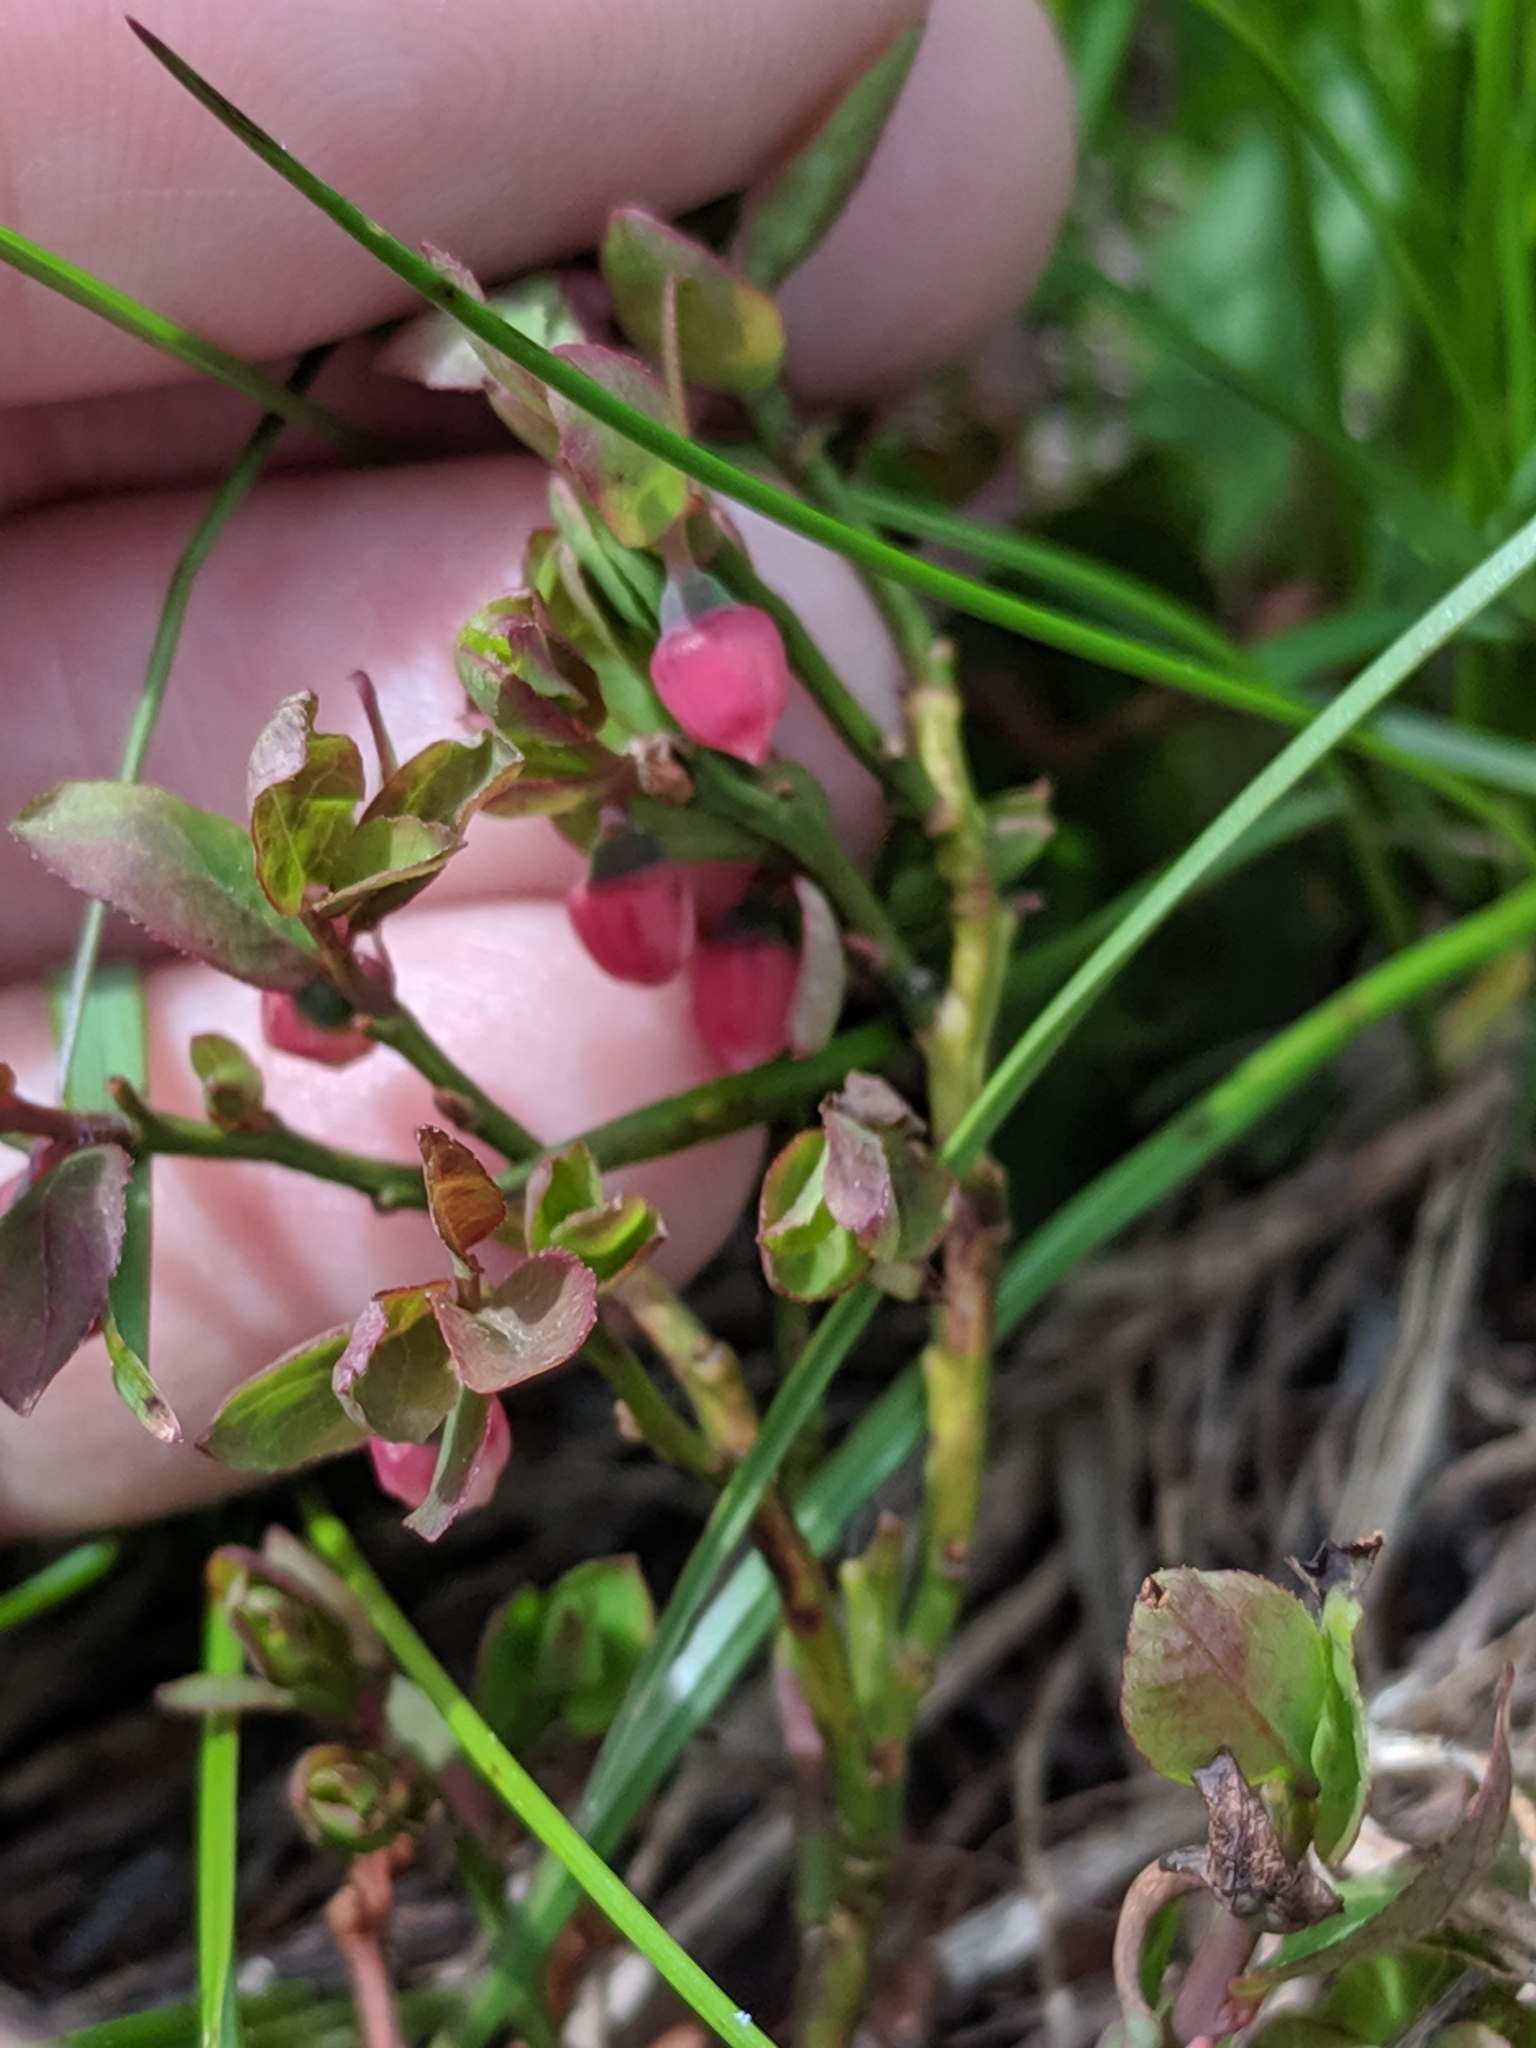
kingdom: Plantae
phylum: Tracheophyta
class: Magnoliopsida
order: Ericales
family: Ericaceae
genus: Vaccinium
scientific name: Vaccinium myrtillus
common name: Bilberry
